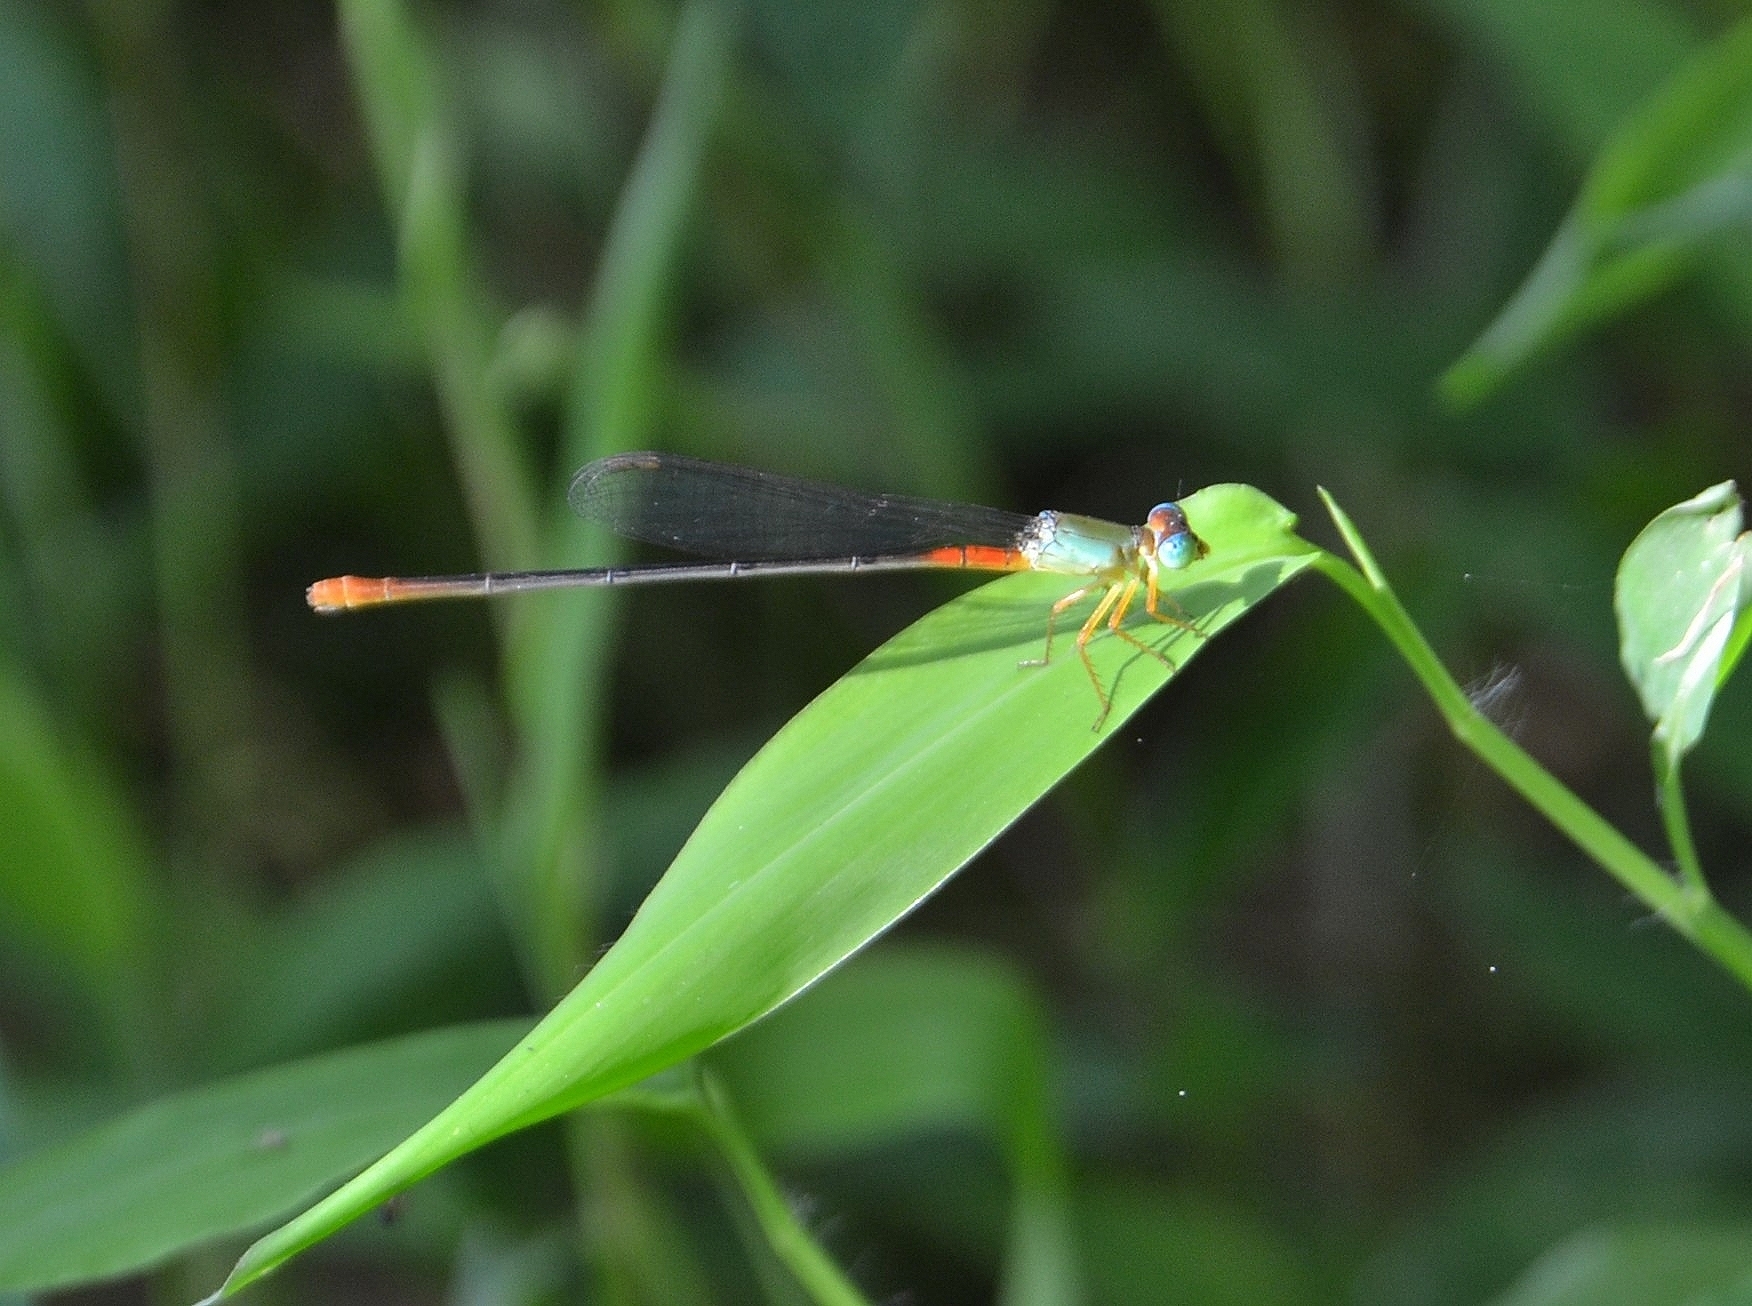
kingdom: Animalia
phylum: Arthropoda
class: Insecta
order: Odonata
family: Coenagrionidae
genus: Ceriagrion
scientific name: Ceriagrion cerinorubellum
